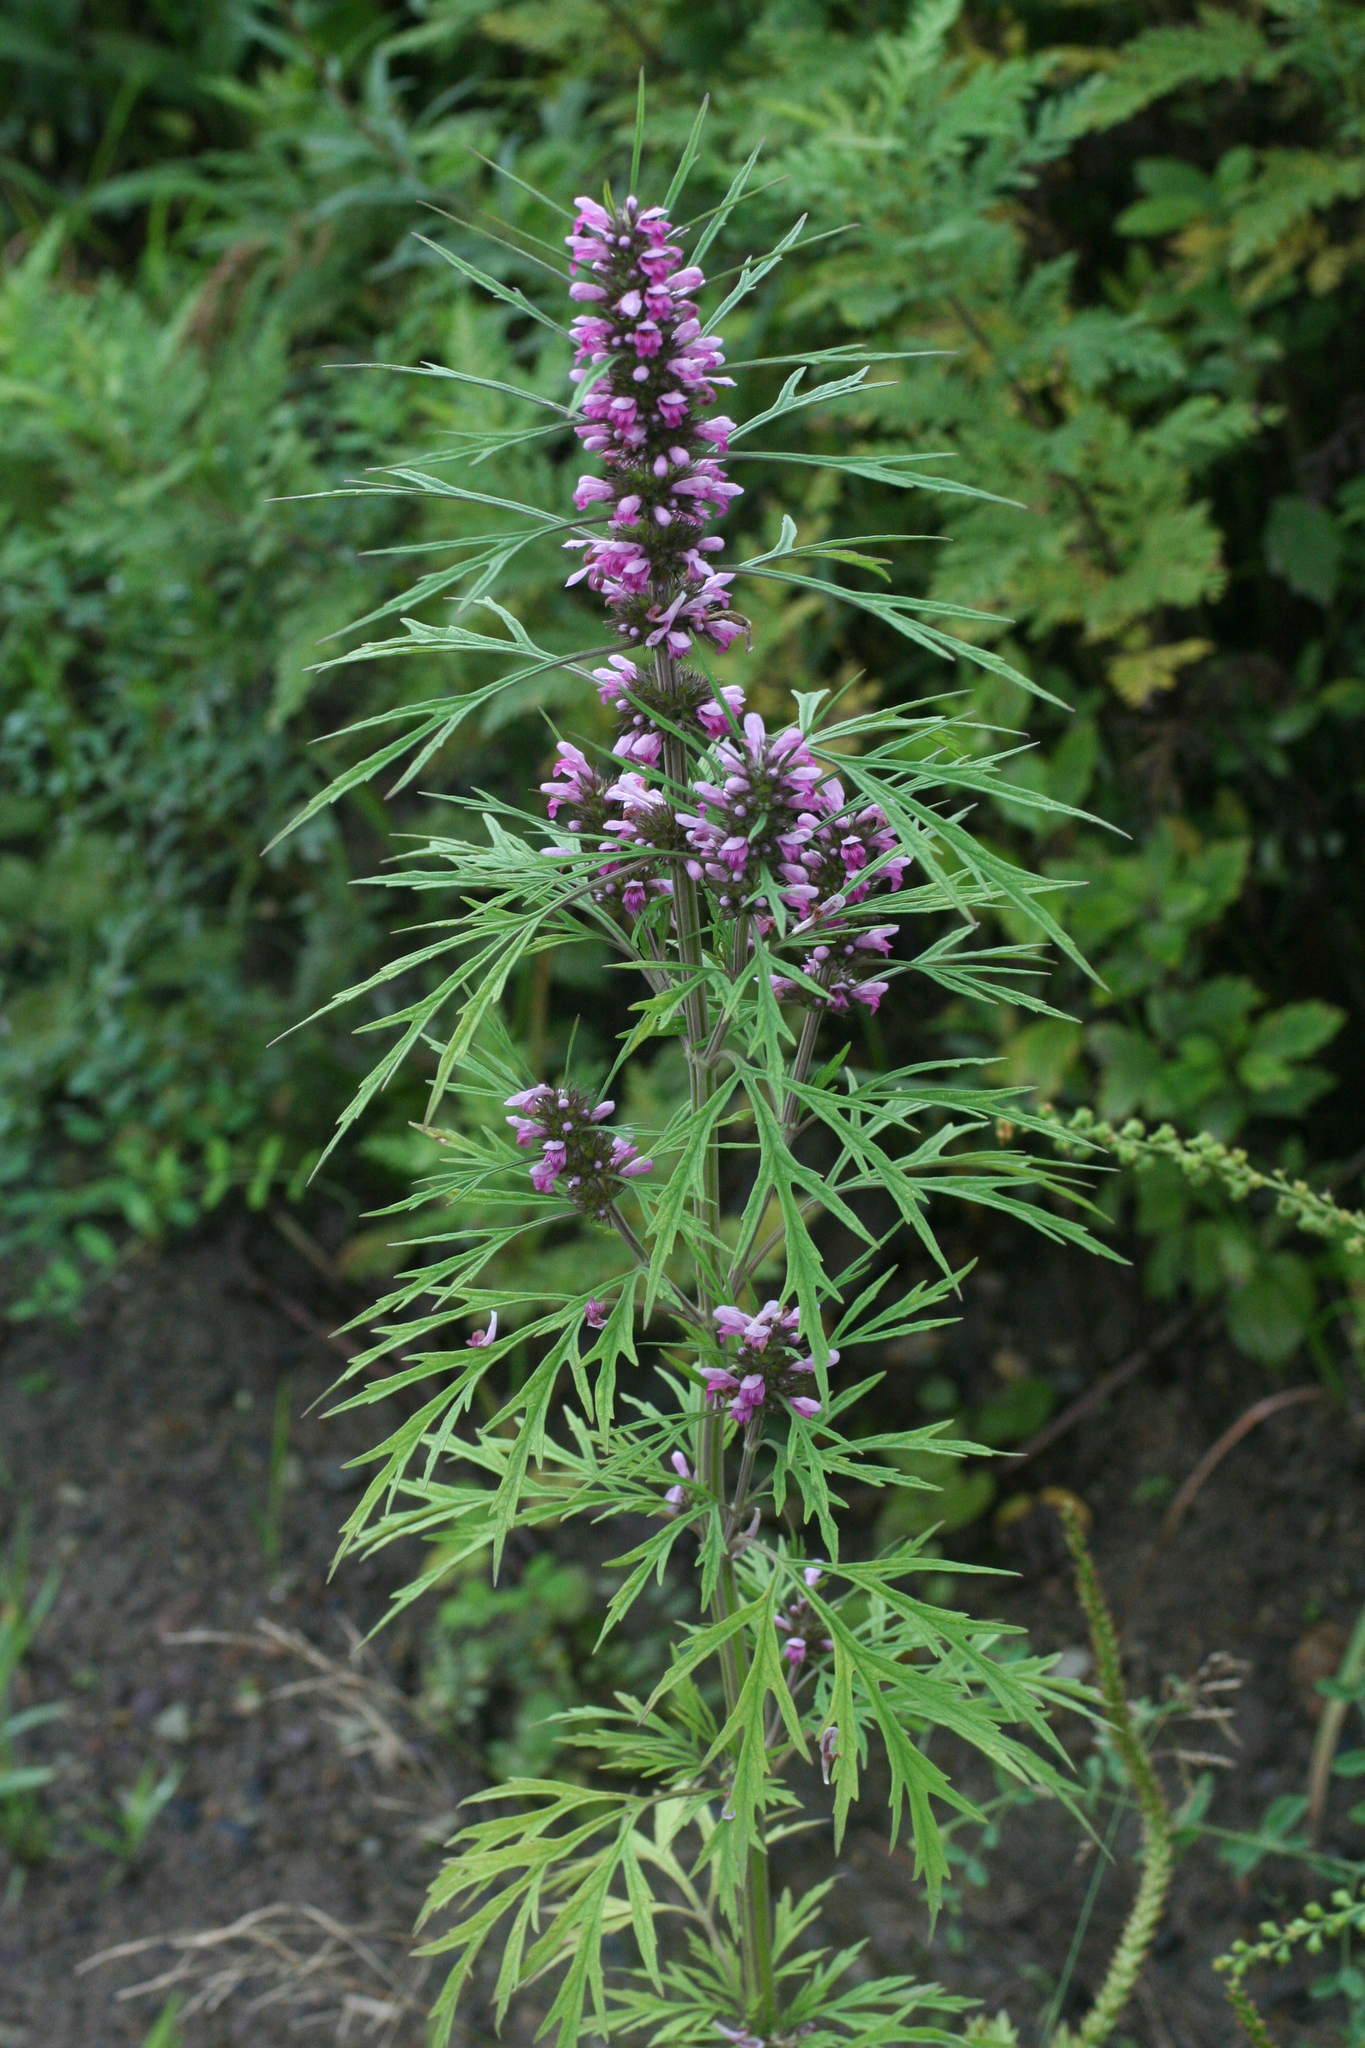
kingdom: Plantae
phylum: Tracheophyta
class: Magnoliopsida
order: Lamiales
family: Lamiaceae
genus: Leonurus
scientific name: Leonurus japonicus
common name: Honeyweed
